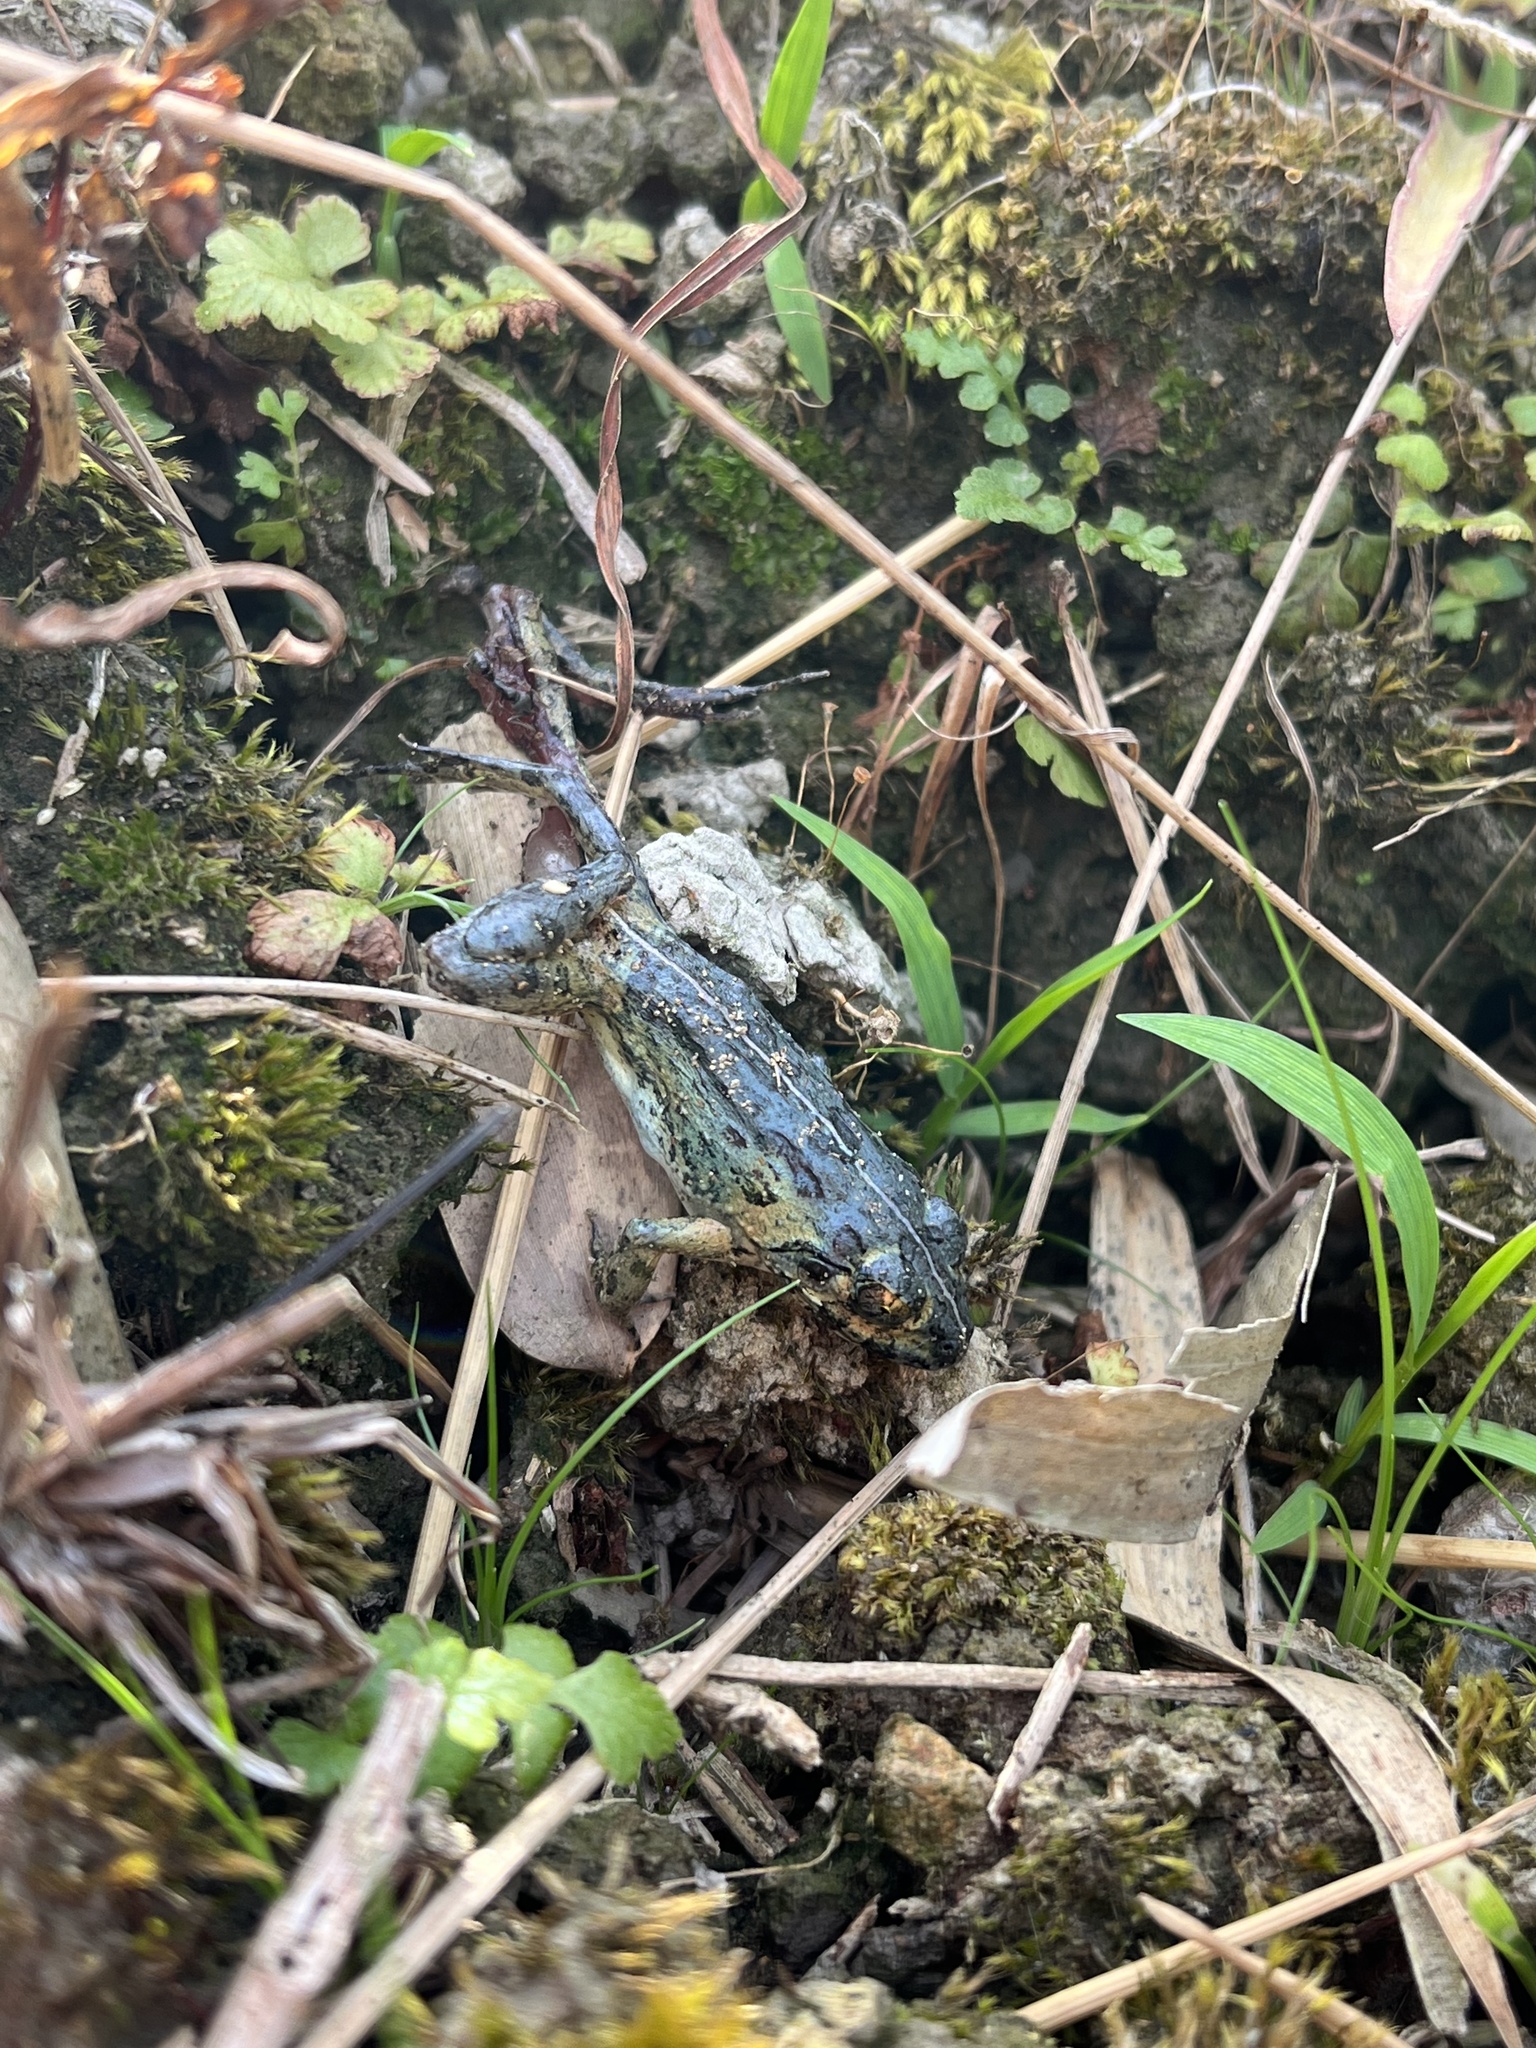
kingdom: Animalia
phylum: Chordata
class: Amphibia
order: Anura
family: Dicroglossidae
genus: Fejervarya
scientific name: Fejervarya limnocharis
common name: Asian grass frog/common pond frog/field frog/grass frog/indian rice frog
